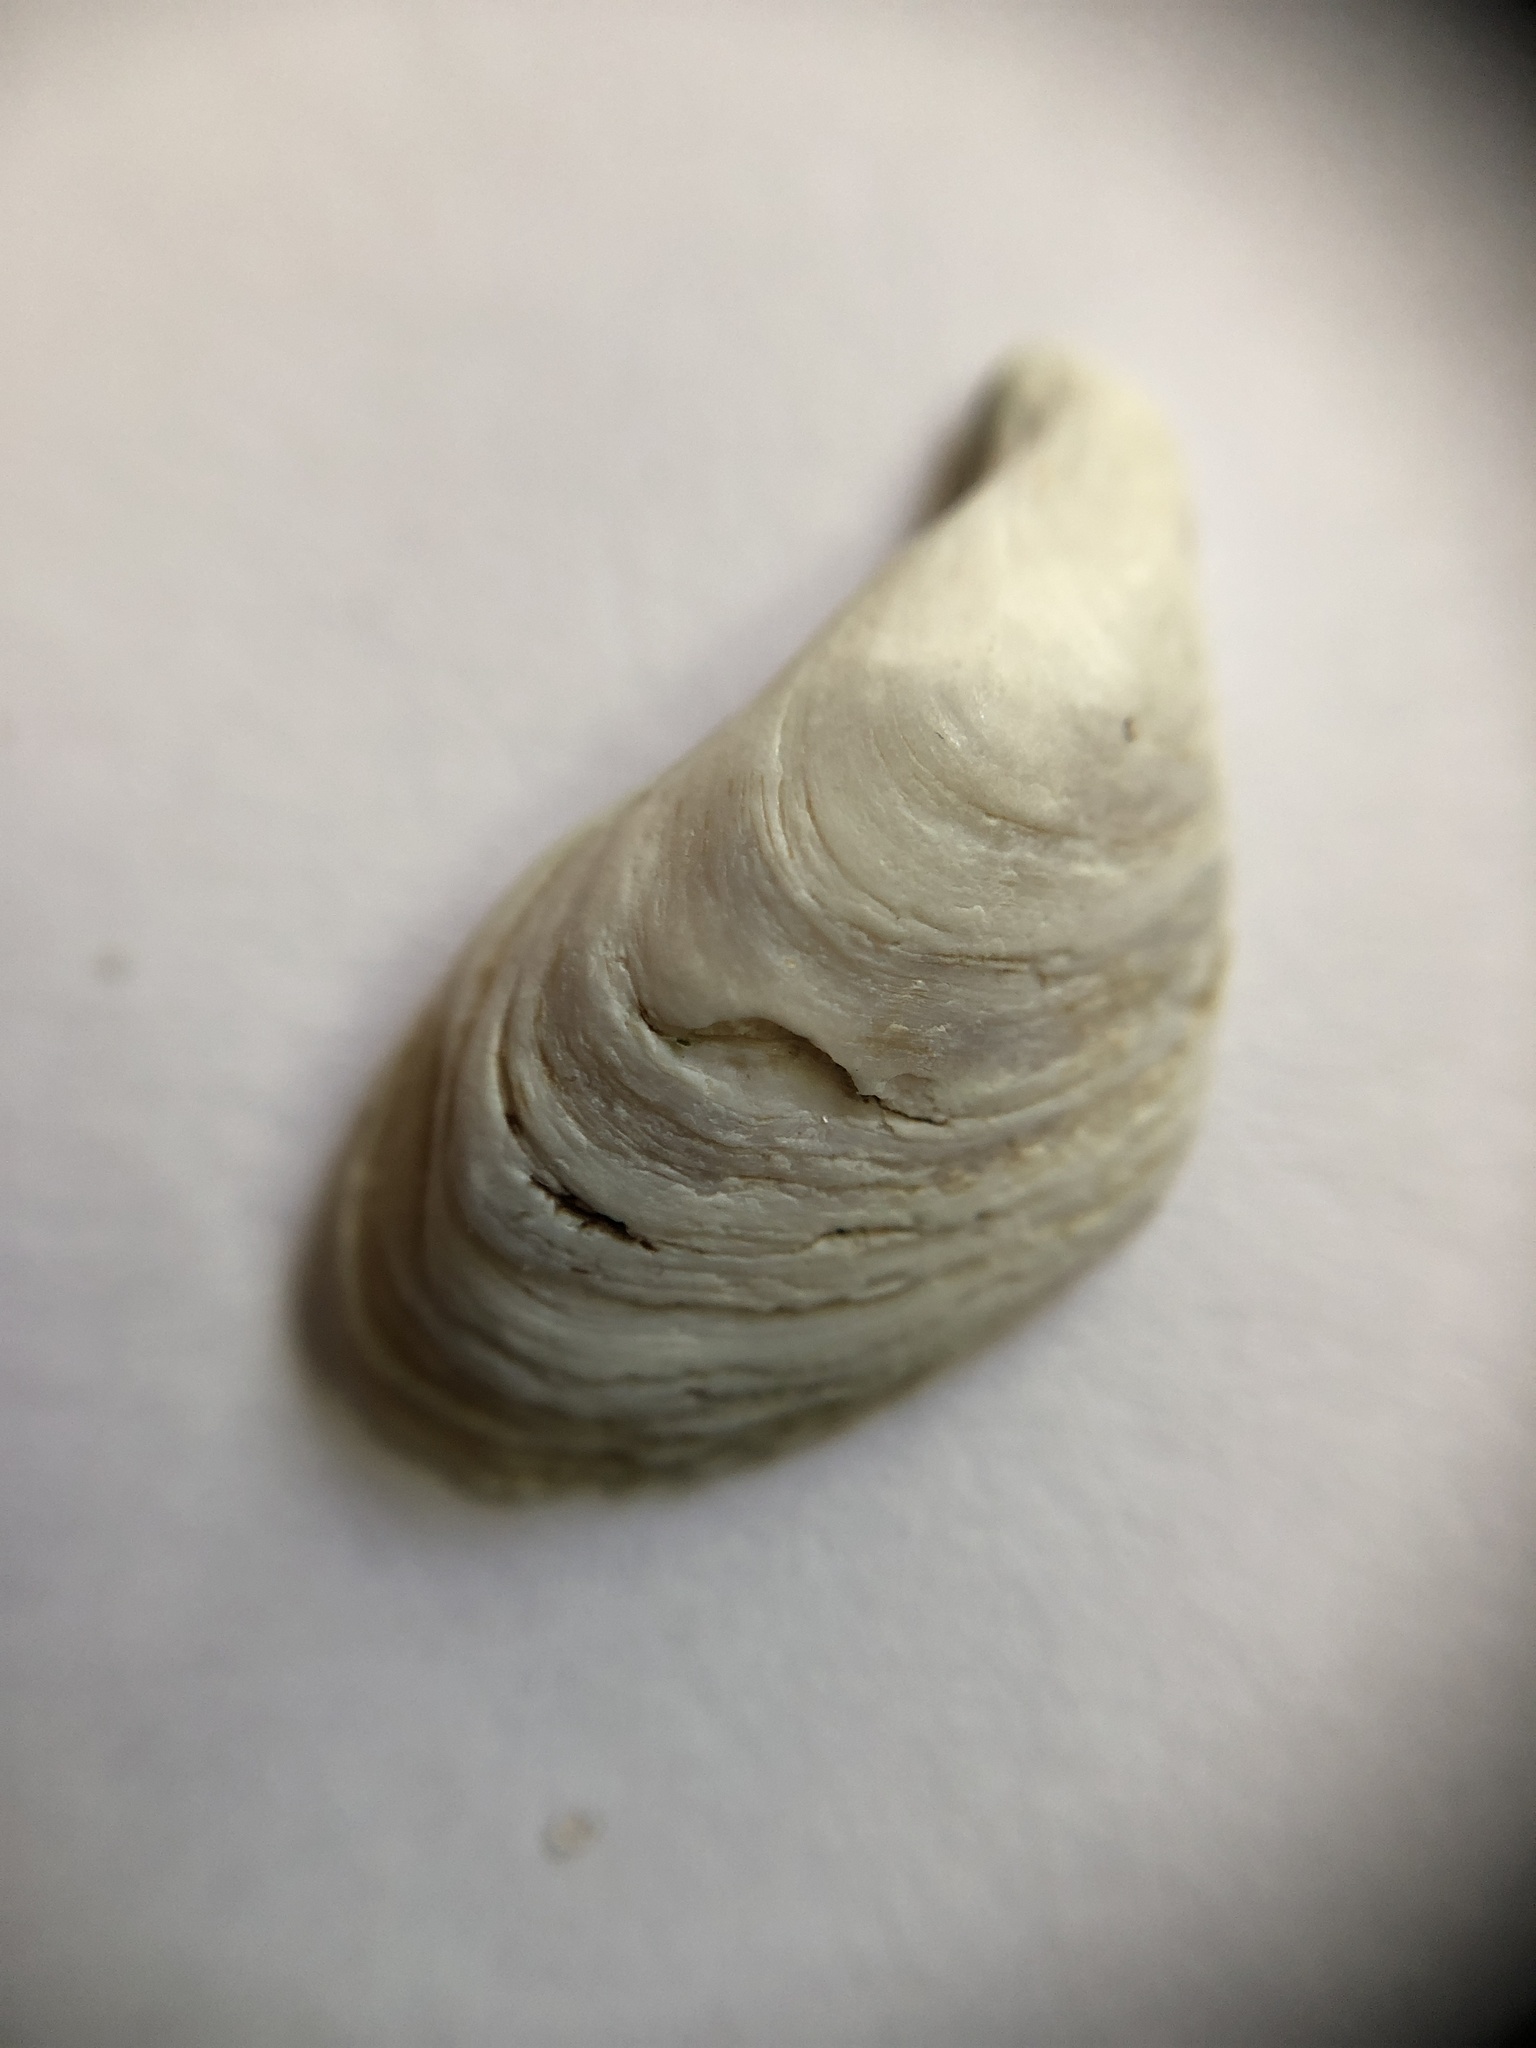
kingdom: Animalia
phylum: Mollusca
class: Bivalvia
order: Myida
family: Dreissenidae
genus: Dreissena
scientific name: Dreissena bugensis
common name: Quagga mussel
